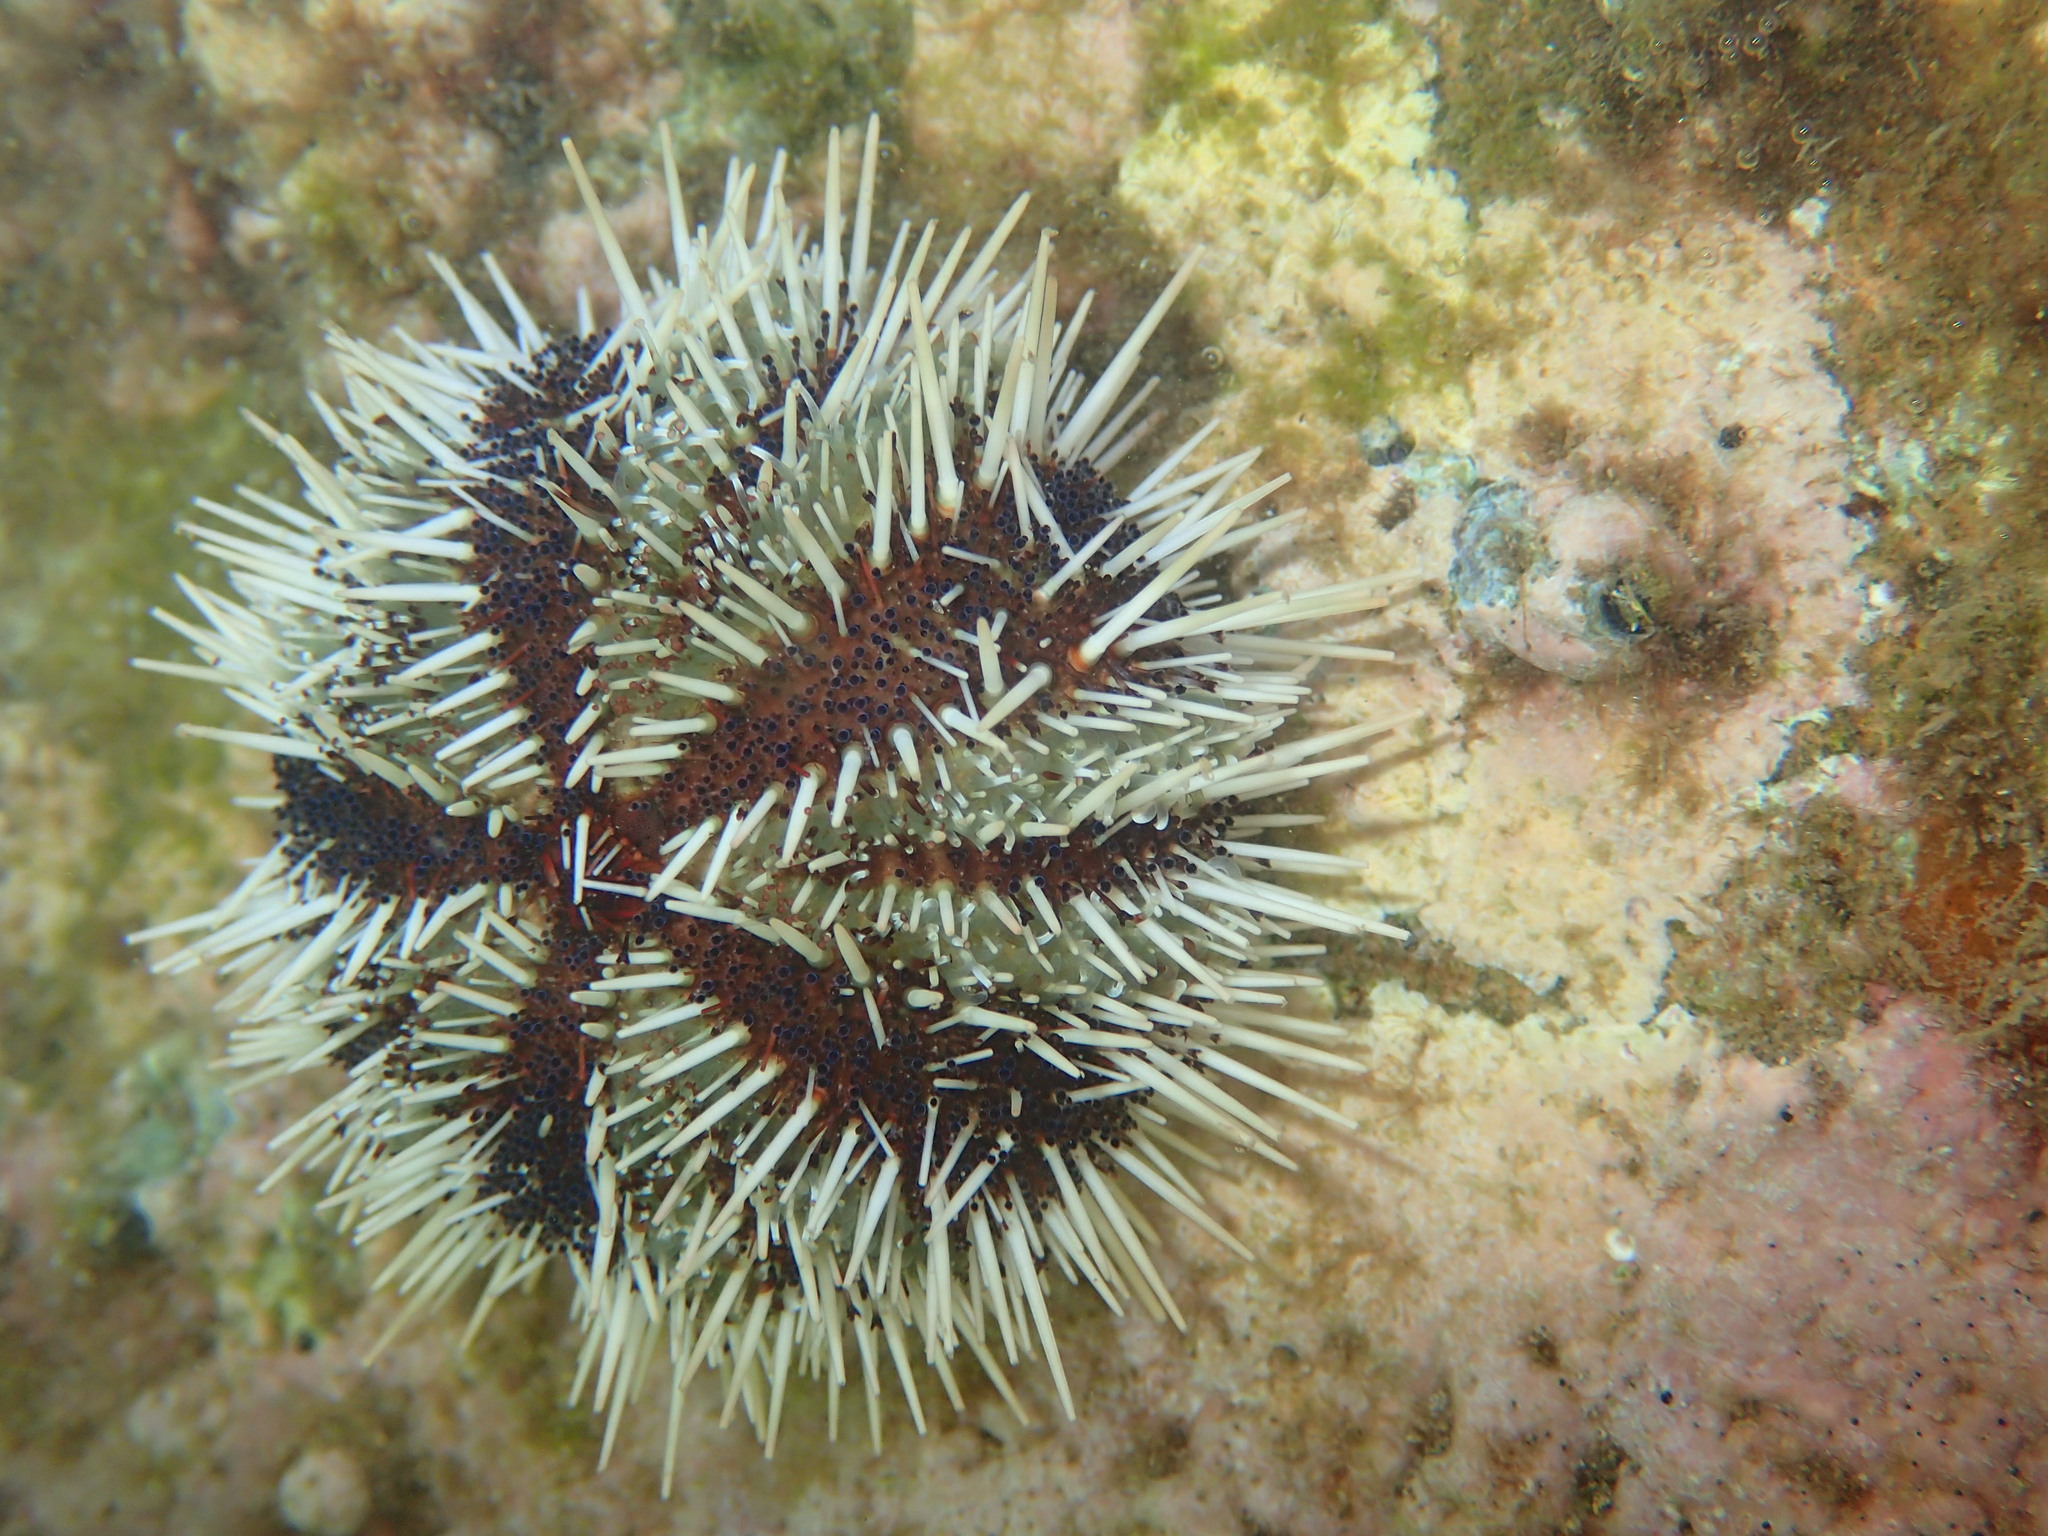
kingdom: Animalia
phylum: Echinodermata
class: Echinoidea
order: Camarodonta
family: Toxopneustidae
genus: Tripneustes
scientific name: Tripneustes gratilla
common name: Bischofsmützenseeigel
